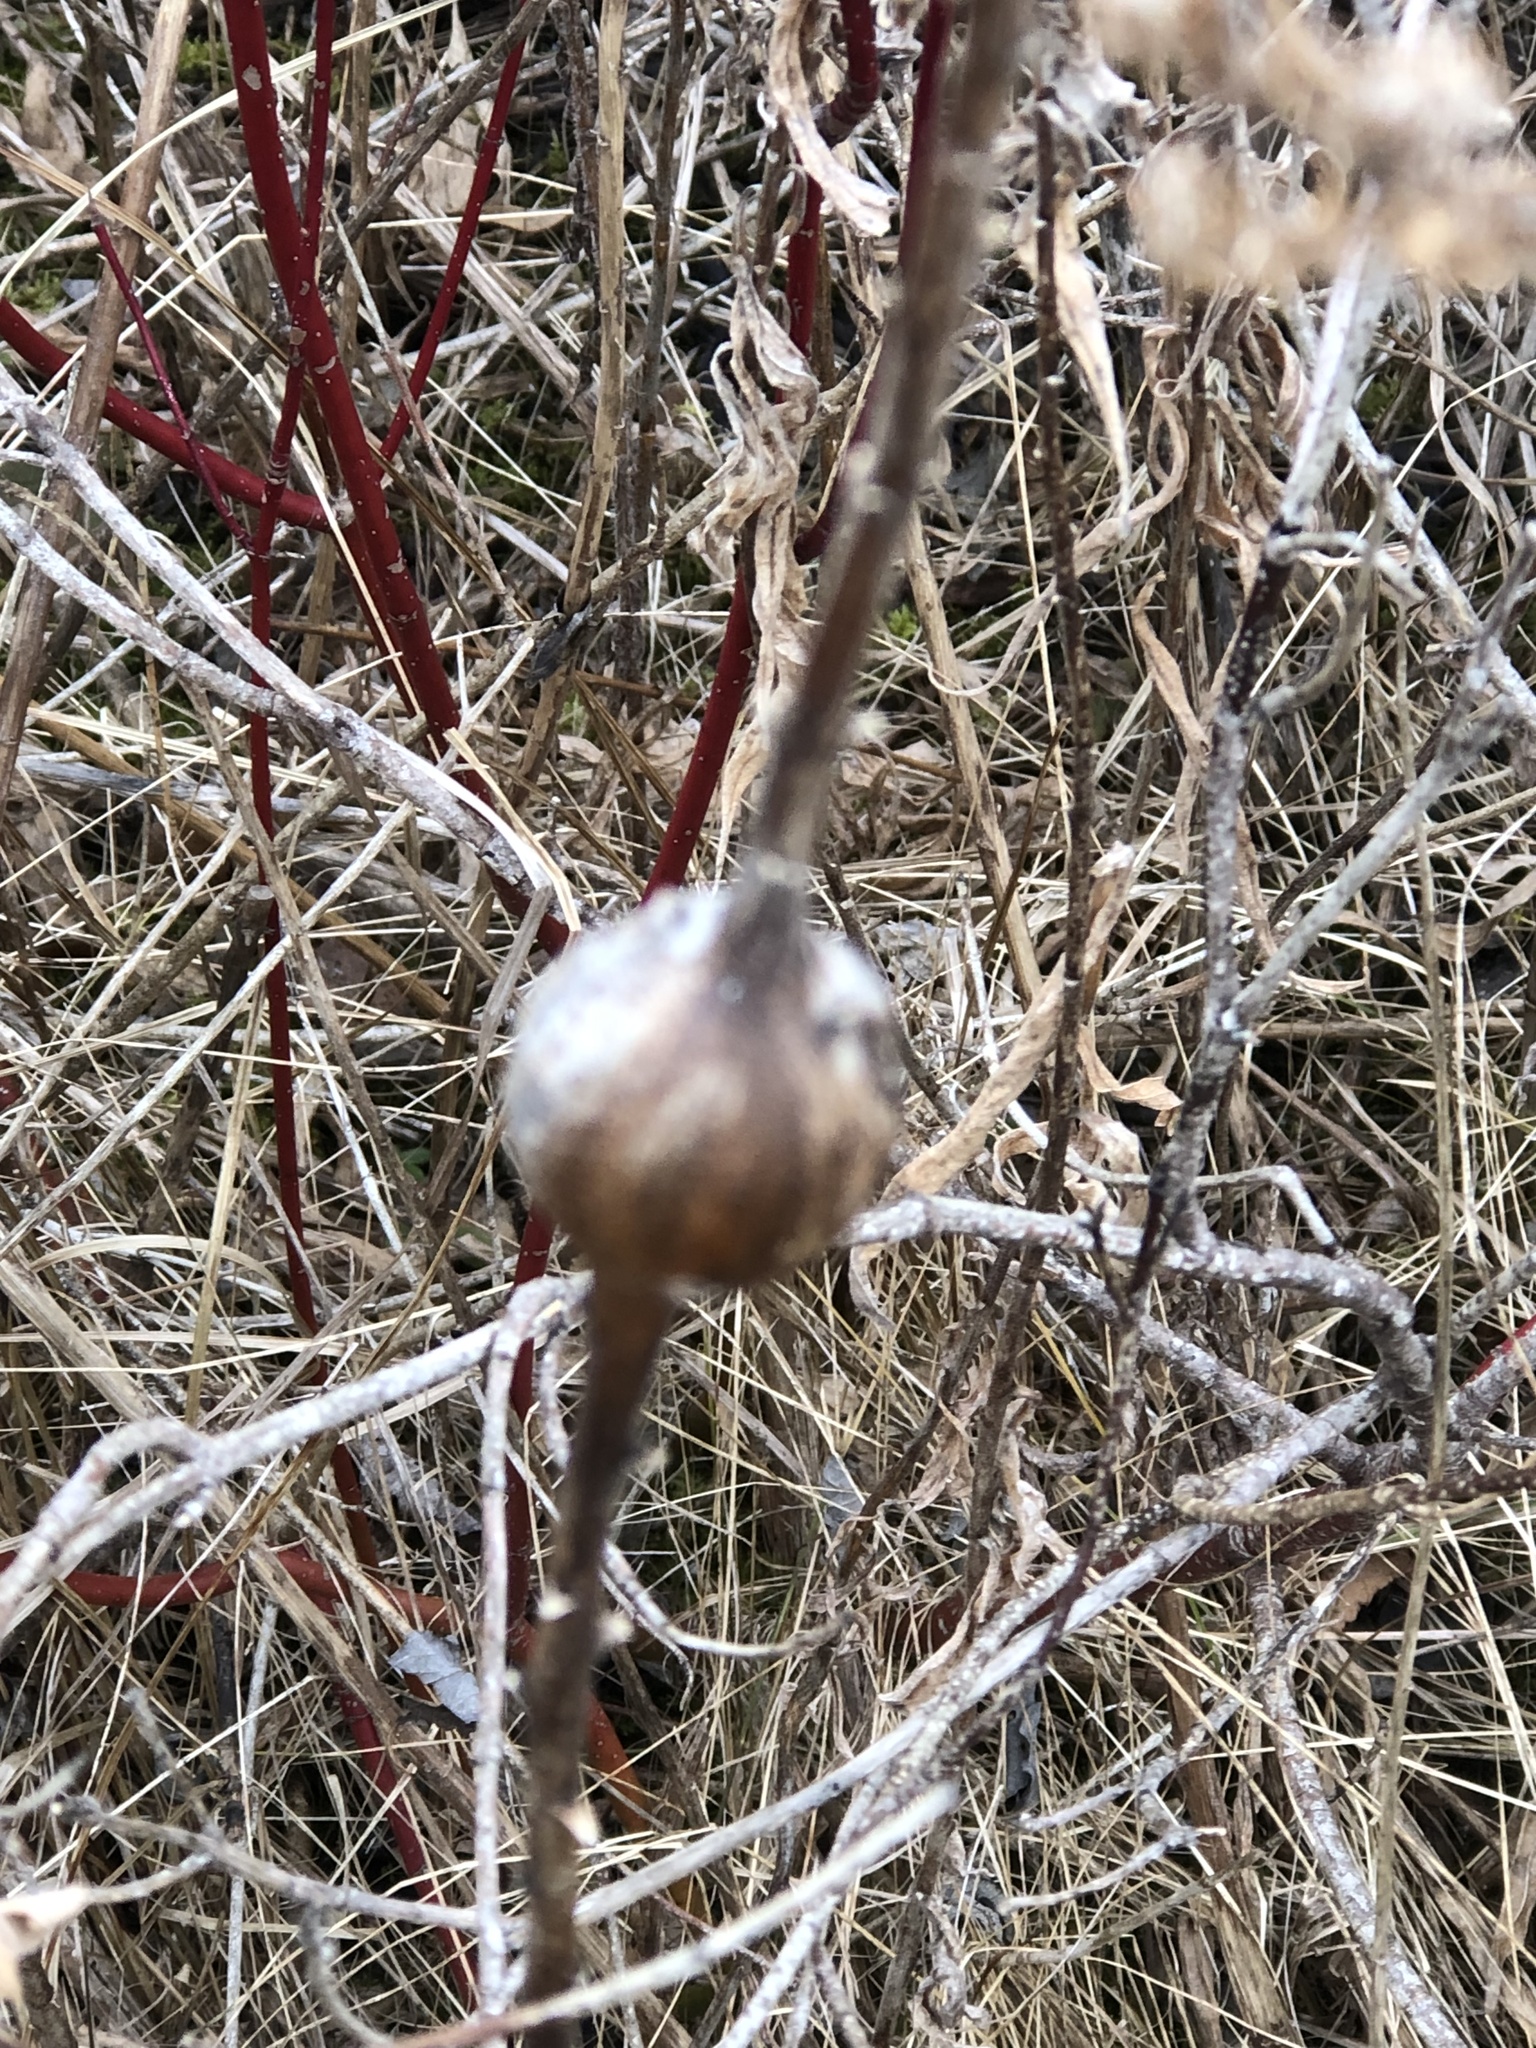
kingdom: Animalia
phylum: Arthropoda
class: Insecta
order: Diptera
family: Tephritidae
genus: Eurosta
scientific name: Eurosta solidaginis
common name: Goldenrod gall fly
